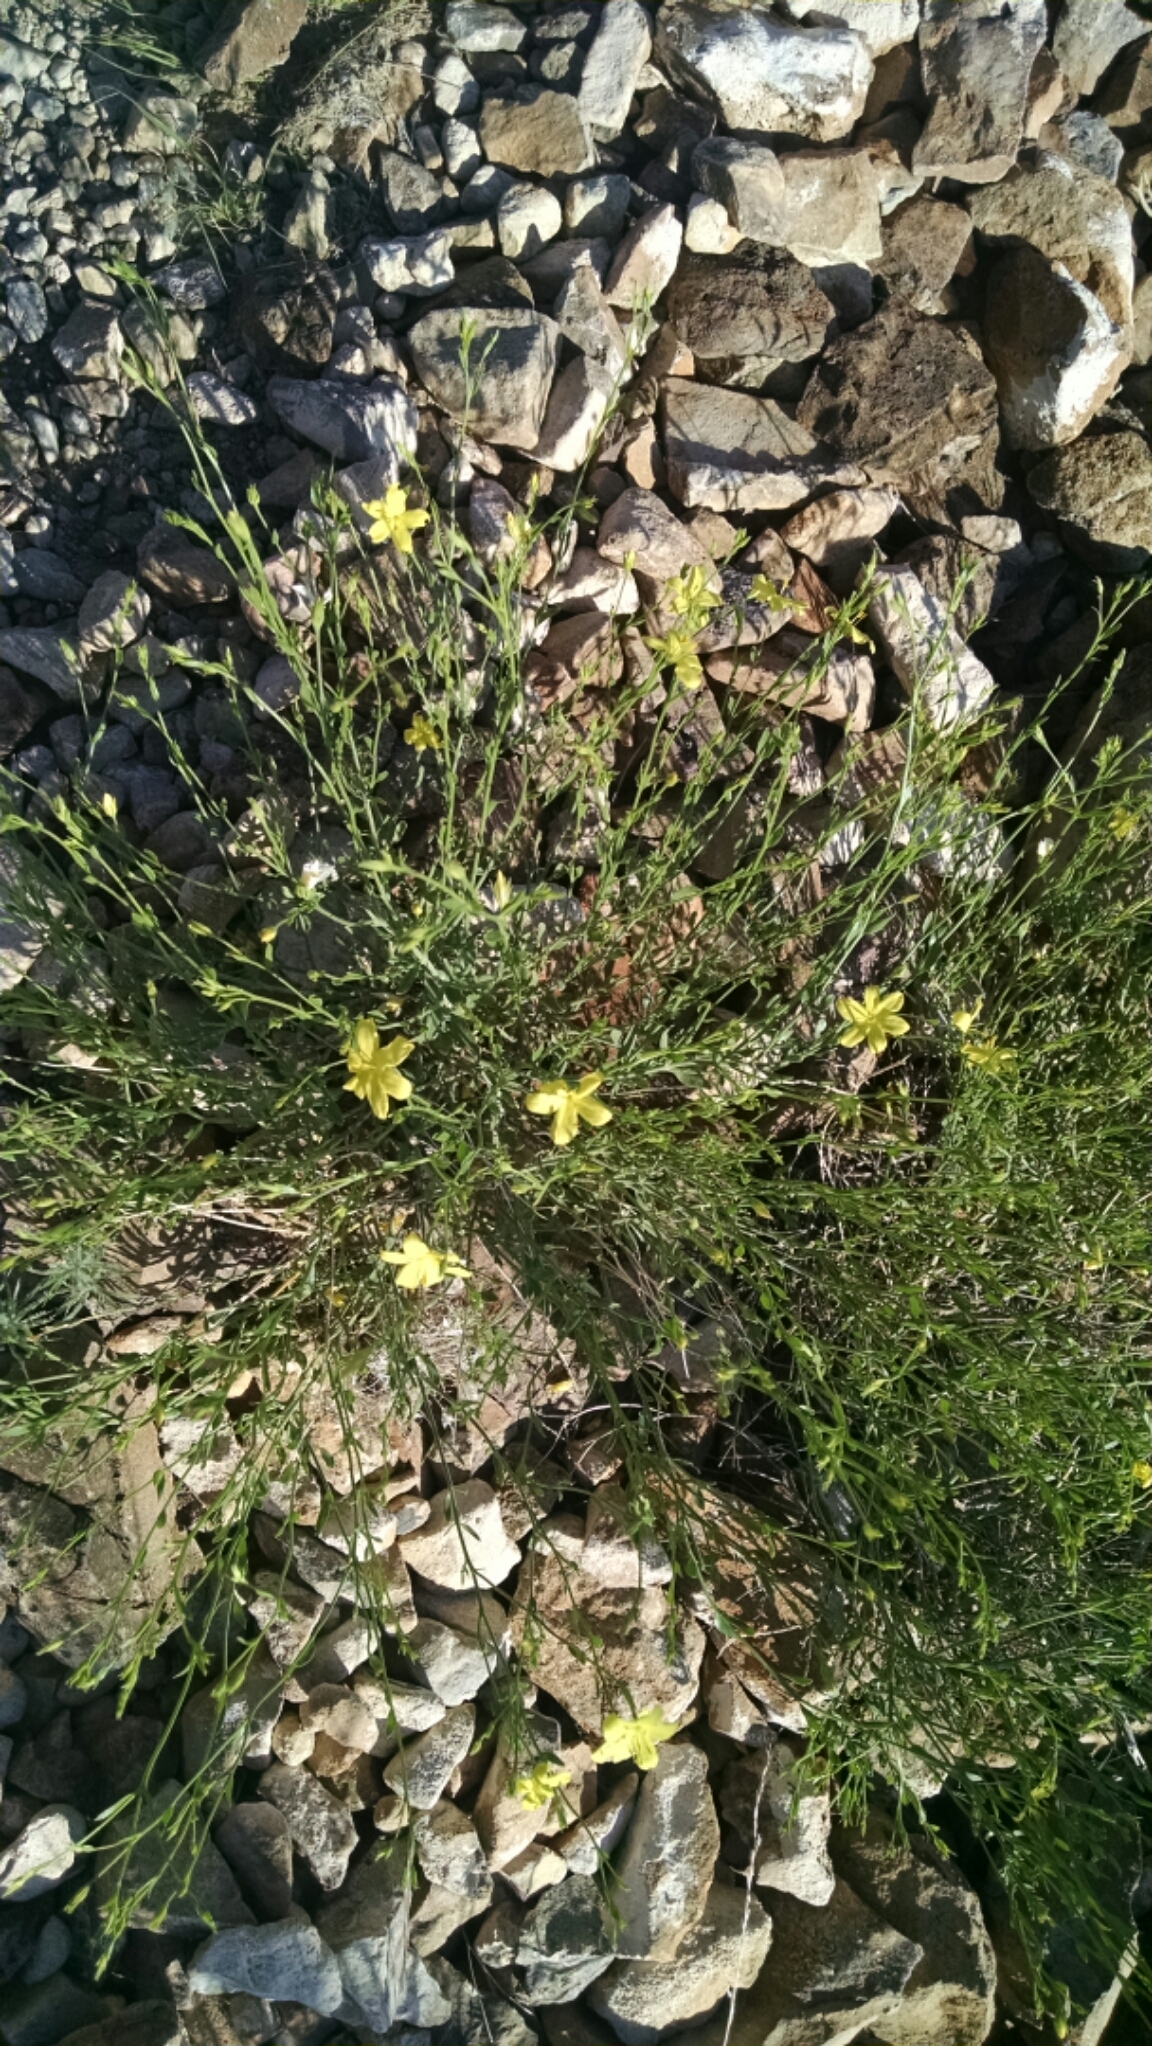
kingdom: Plantae
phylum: Tracheophyta
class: Magnoliopsida
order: Lamiales
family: Oleaceae
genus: Menodora
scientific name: Menodora scabra
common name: Rough menodora
